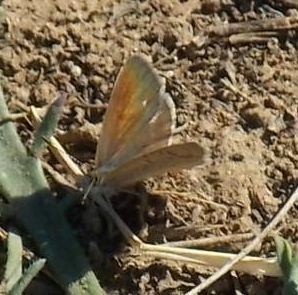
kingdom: Animalia
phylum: Arthropoda
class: Insecta
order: Lepidoptera
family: Lycaenidae
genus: Zizeeria
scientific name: Zizeeria knysna
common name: African grass blue
